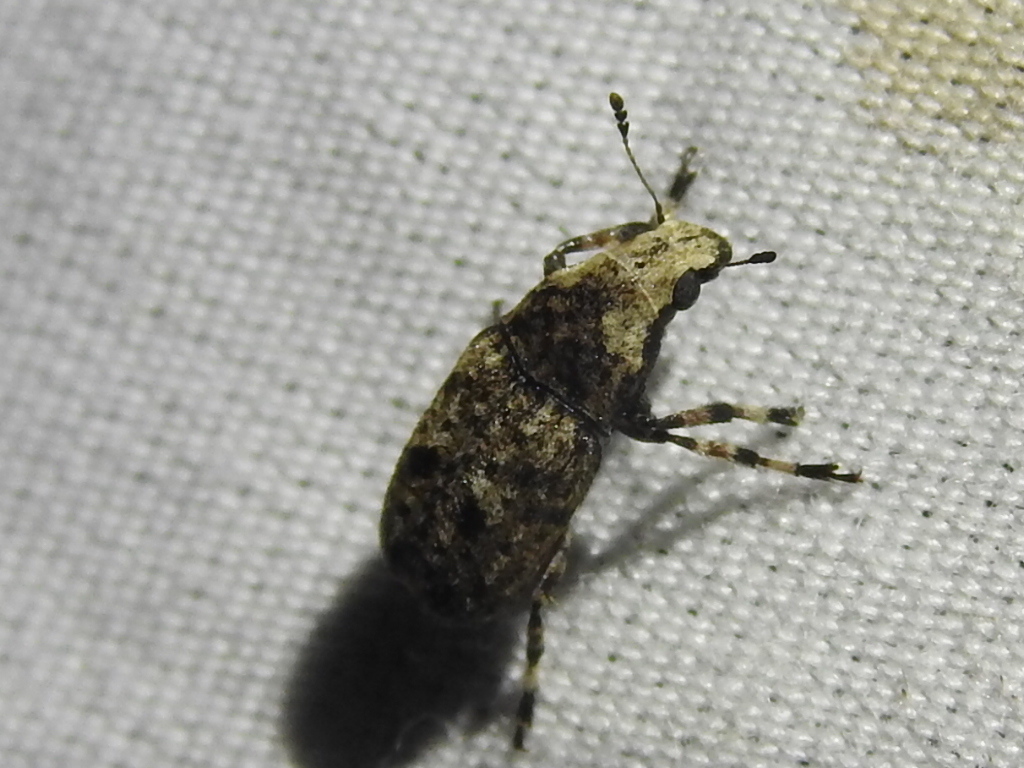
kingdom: Animalia
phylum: Arthropoda
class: Insecta
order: Coleoptera
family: Anthribidae
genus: Euparius
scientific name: Euparius marmoreus
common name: Marbled fungus weevil
